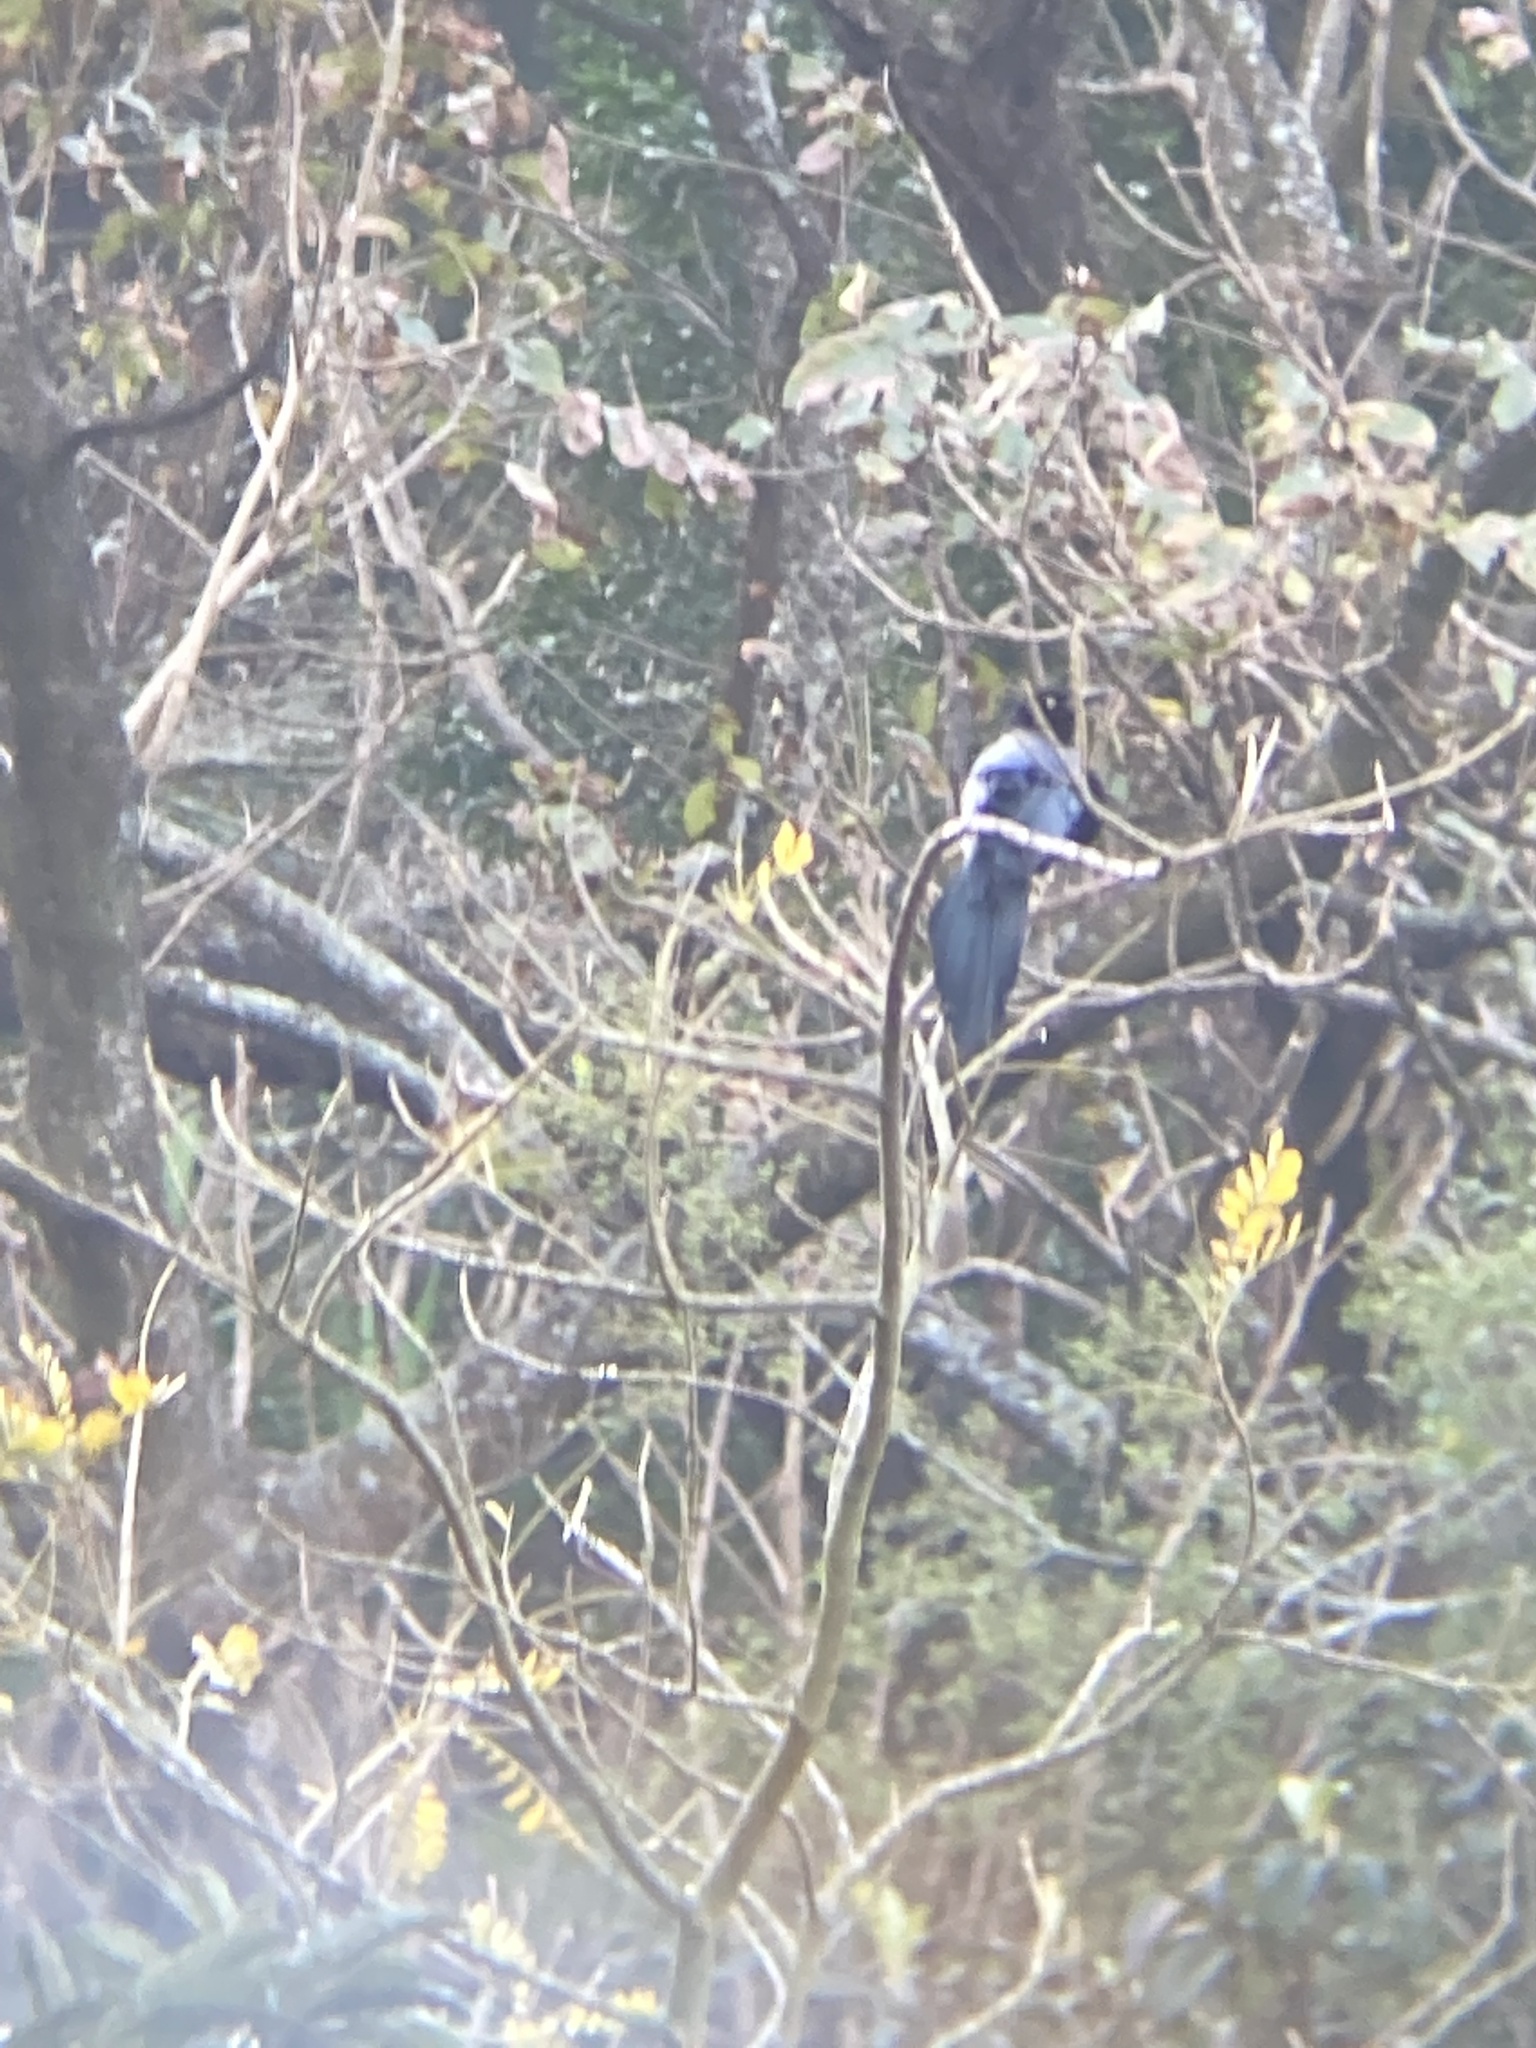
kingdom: Animalia
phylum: Chordata
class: Aves
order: Passeriformes
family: Corvidae
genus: Cyanocorax
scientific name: Cyanocorax melanocyaneus
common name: Bushy-crested jay
